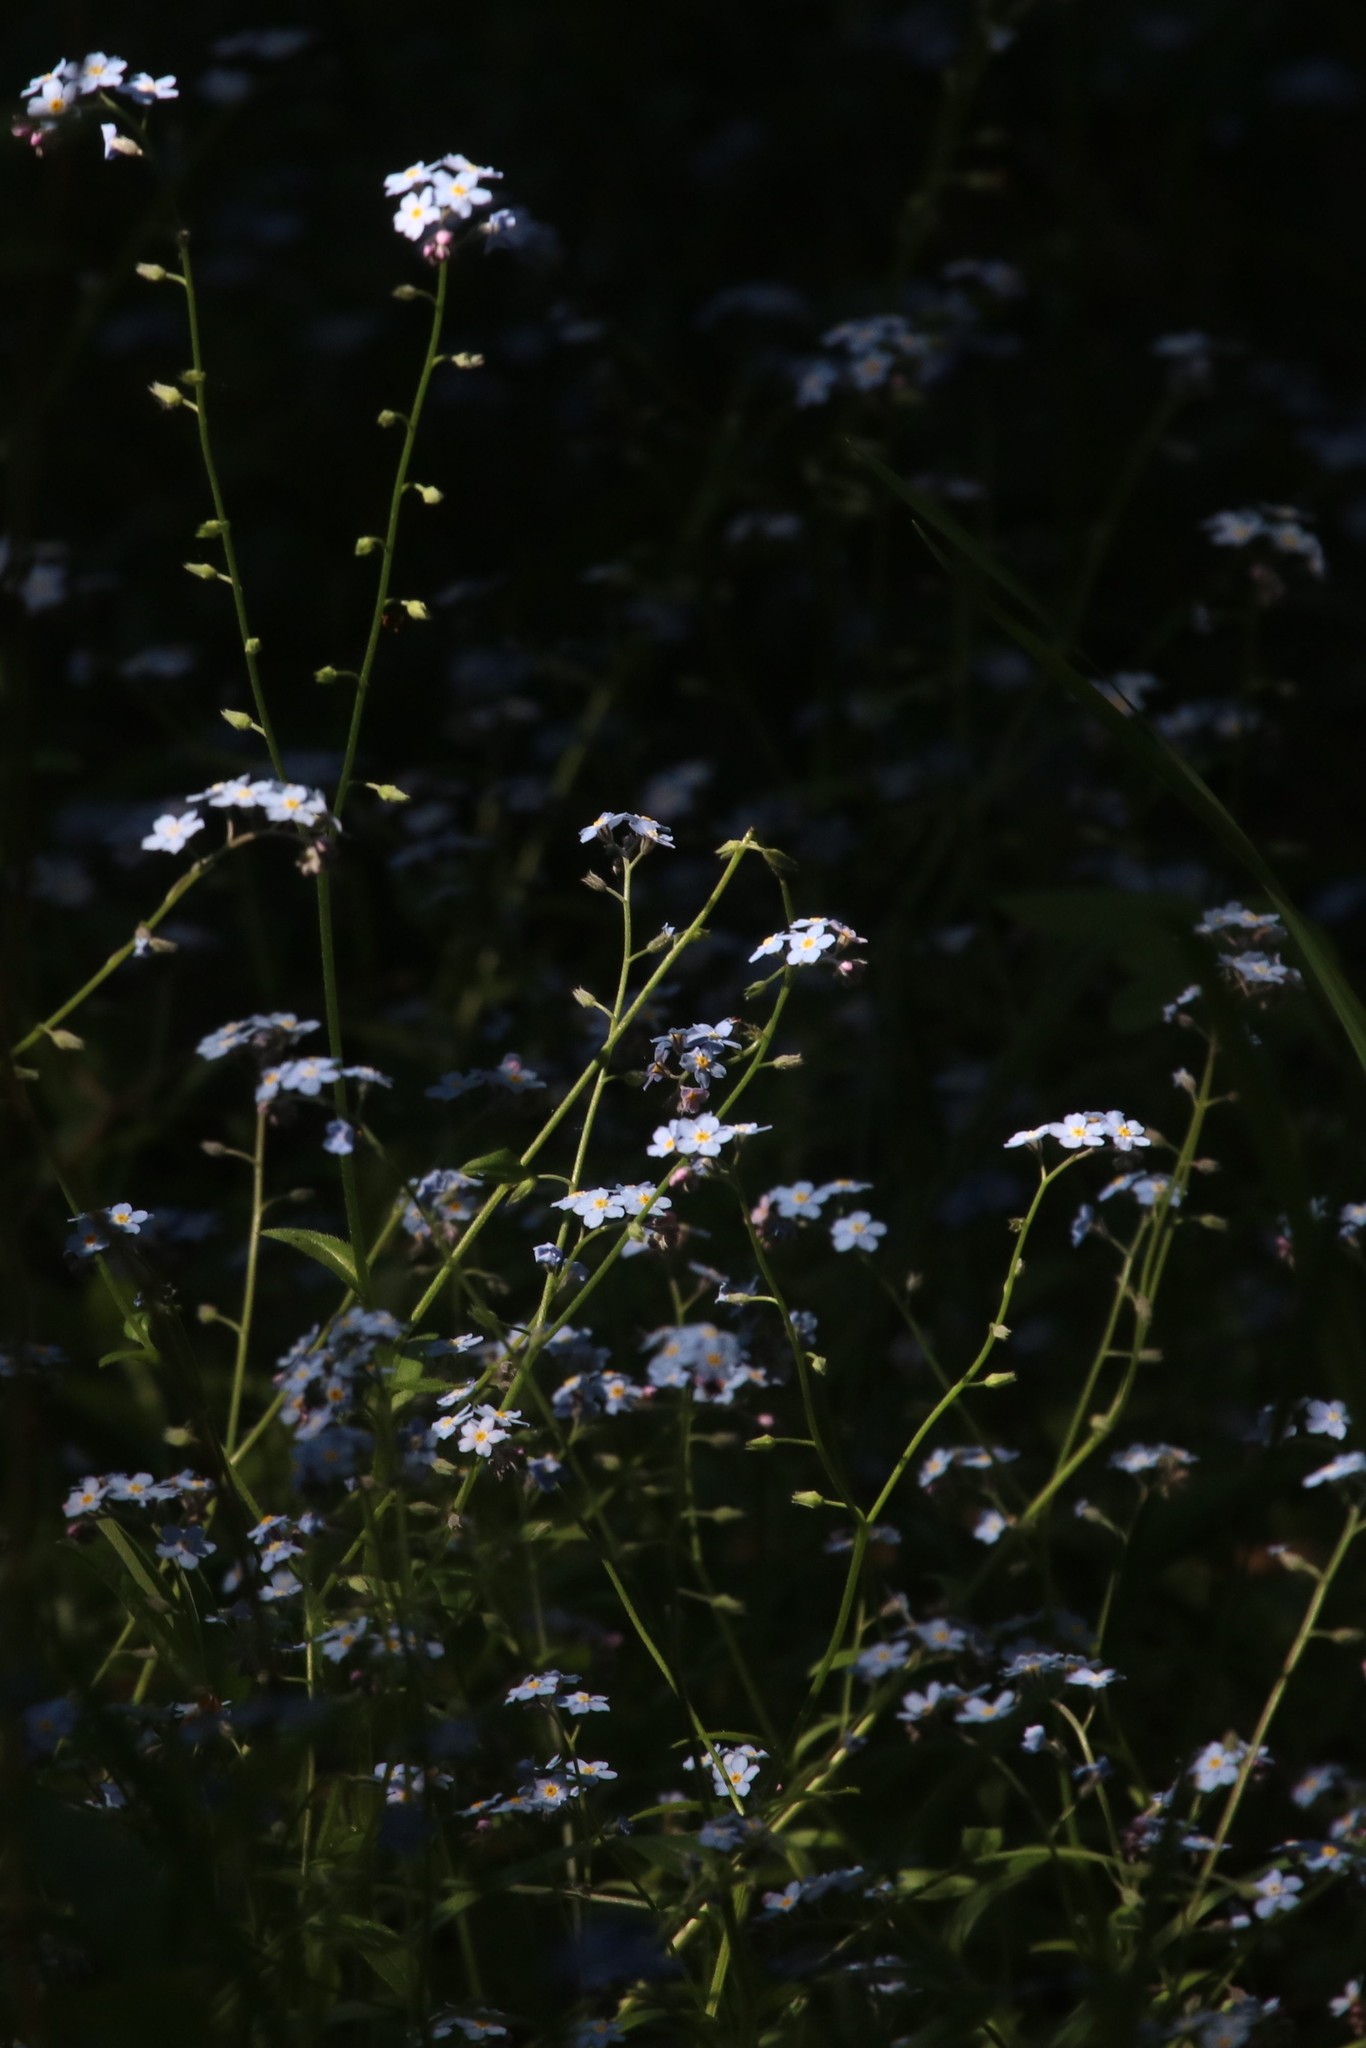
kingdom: Plantae
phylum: Tracheophyta
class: Magnoliopsida
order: Boraginales
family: Boraginaceae
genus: Myosotis
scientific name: Myosotis sylvatica
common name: Wood forget-me-not
